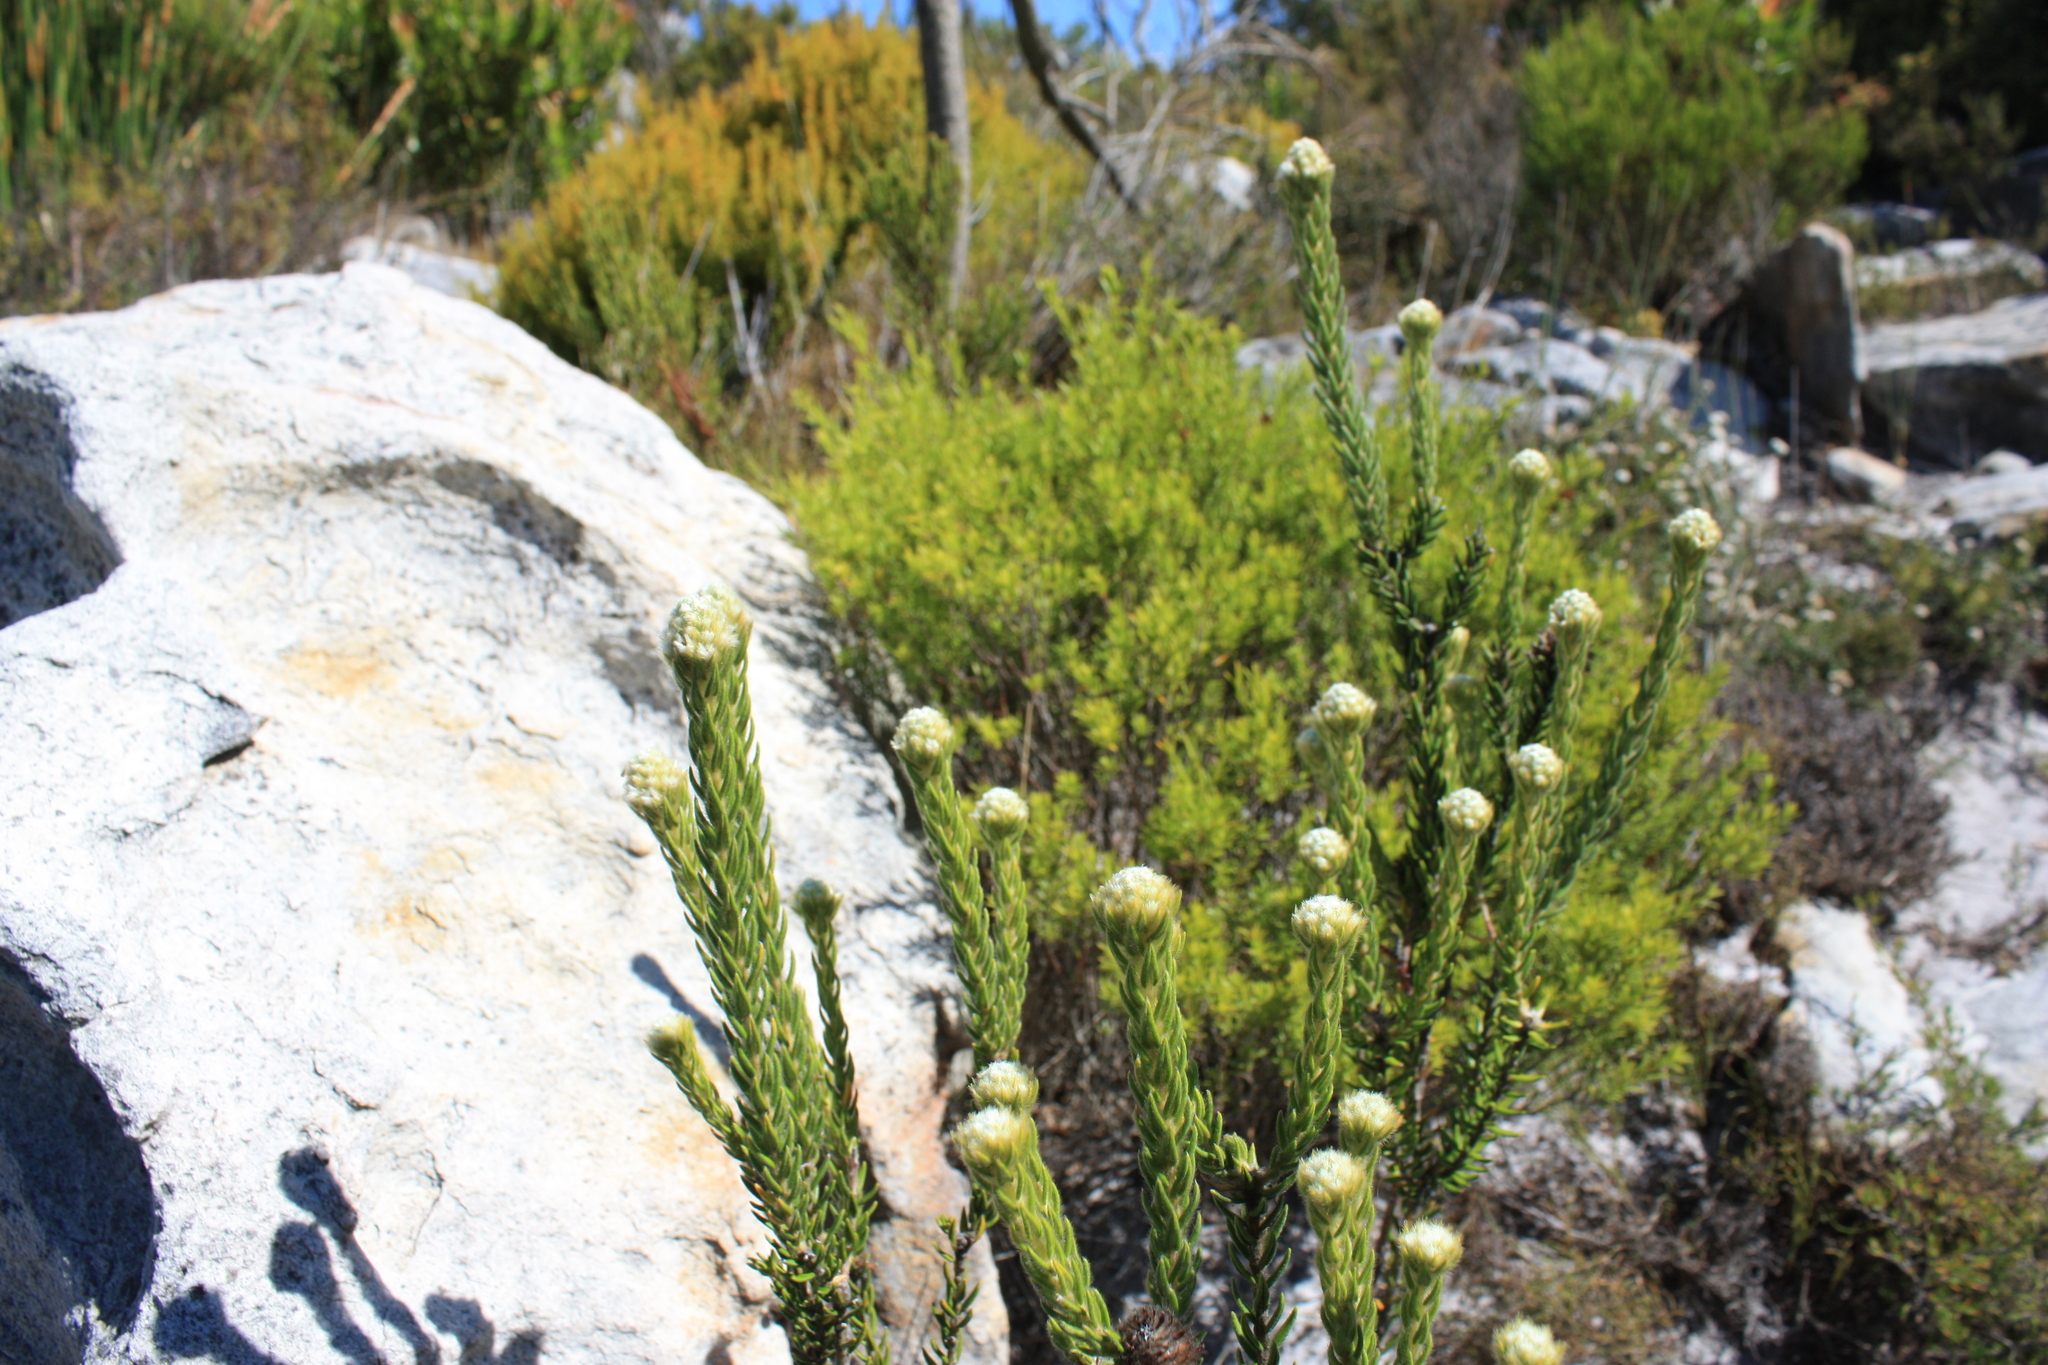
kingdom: Plantae
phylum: Tracheophyta
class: Magnoliopsida
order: Rosales
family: Rhamnaceae
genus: Phylica
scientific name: Phylica strigosa
